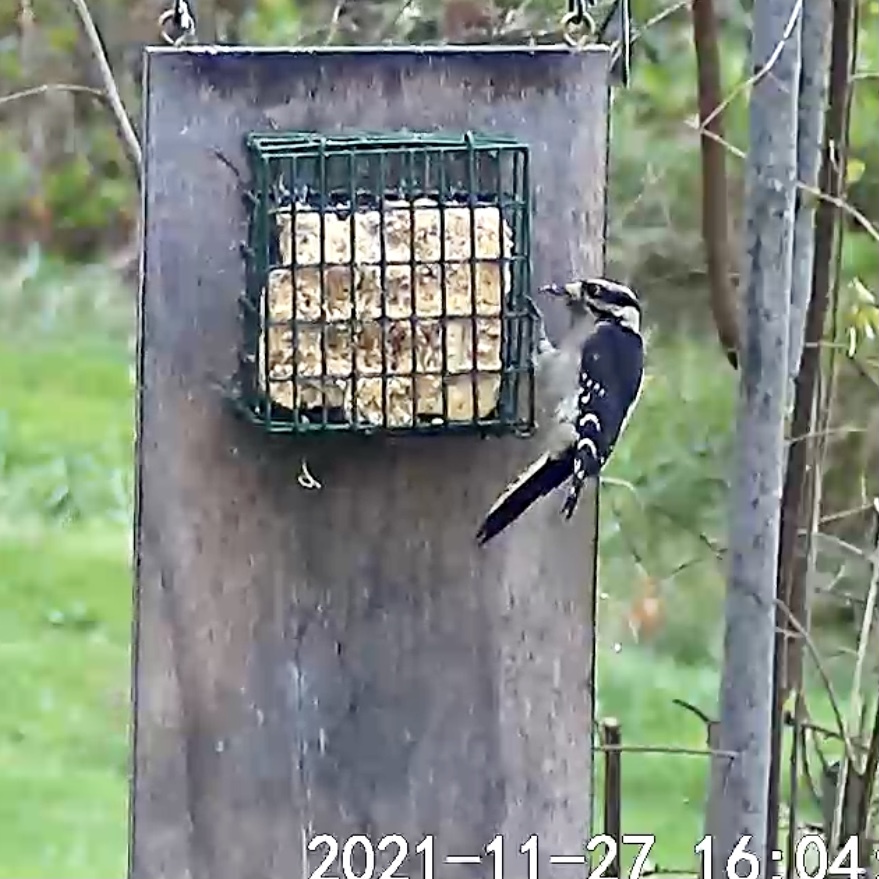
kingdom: Animalia
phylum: Chordata
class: Aves
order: Piciformes
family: Picidae
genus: Leuconotopicus
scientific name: Leuconotopicus villosus
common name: Hairy woodpecker
